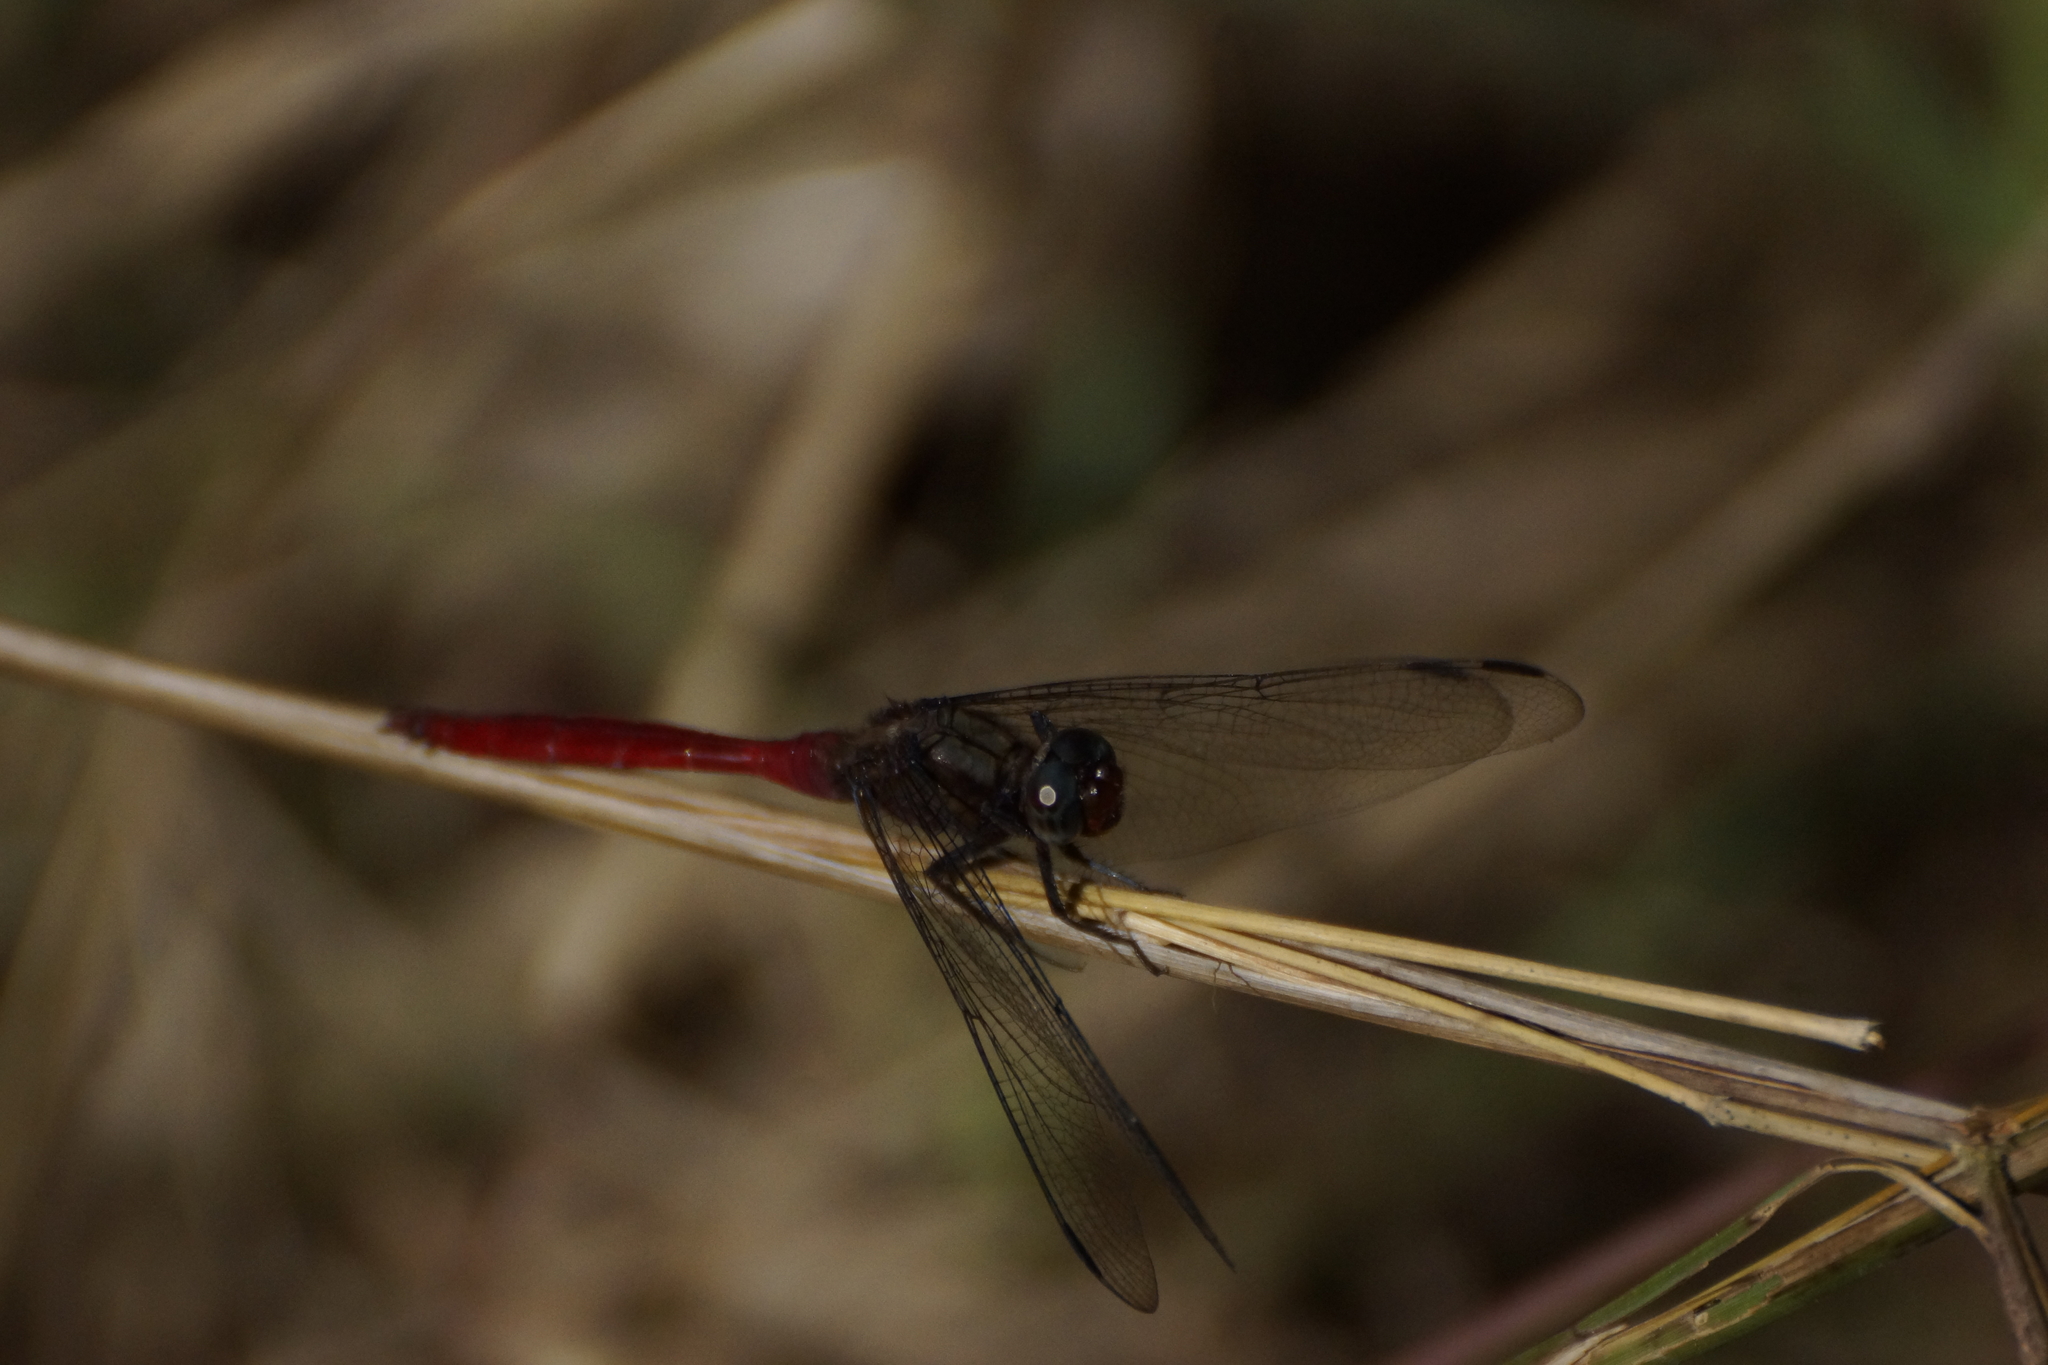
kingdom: Animalia
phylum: Arthropoda
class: Insecta
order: Odonata
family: Libellulidae
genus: Orthetrum
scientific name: Orthetrum villosovittatum
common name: Firery skimmer
